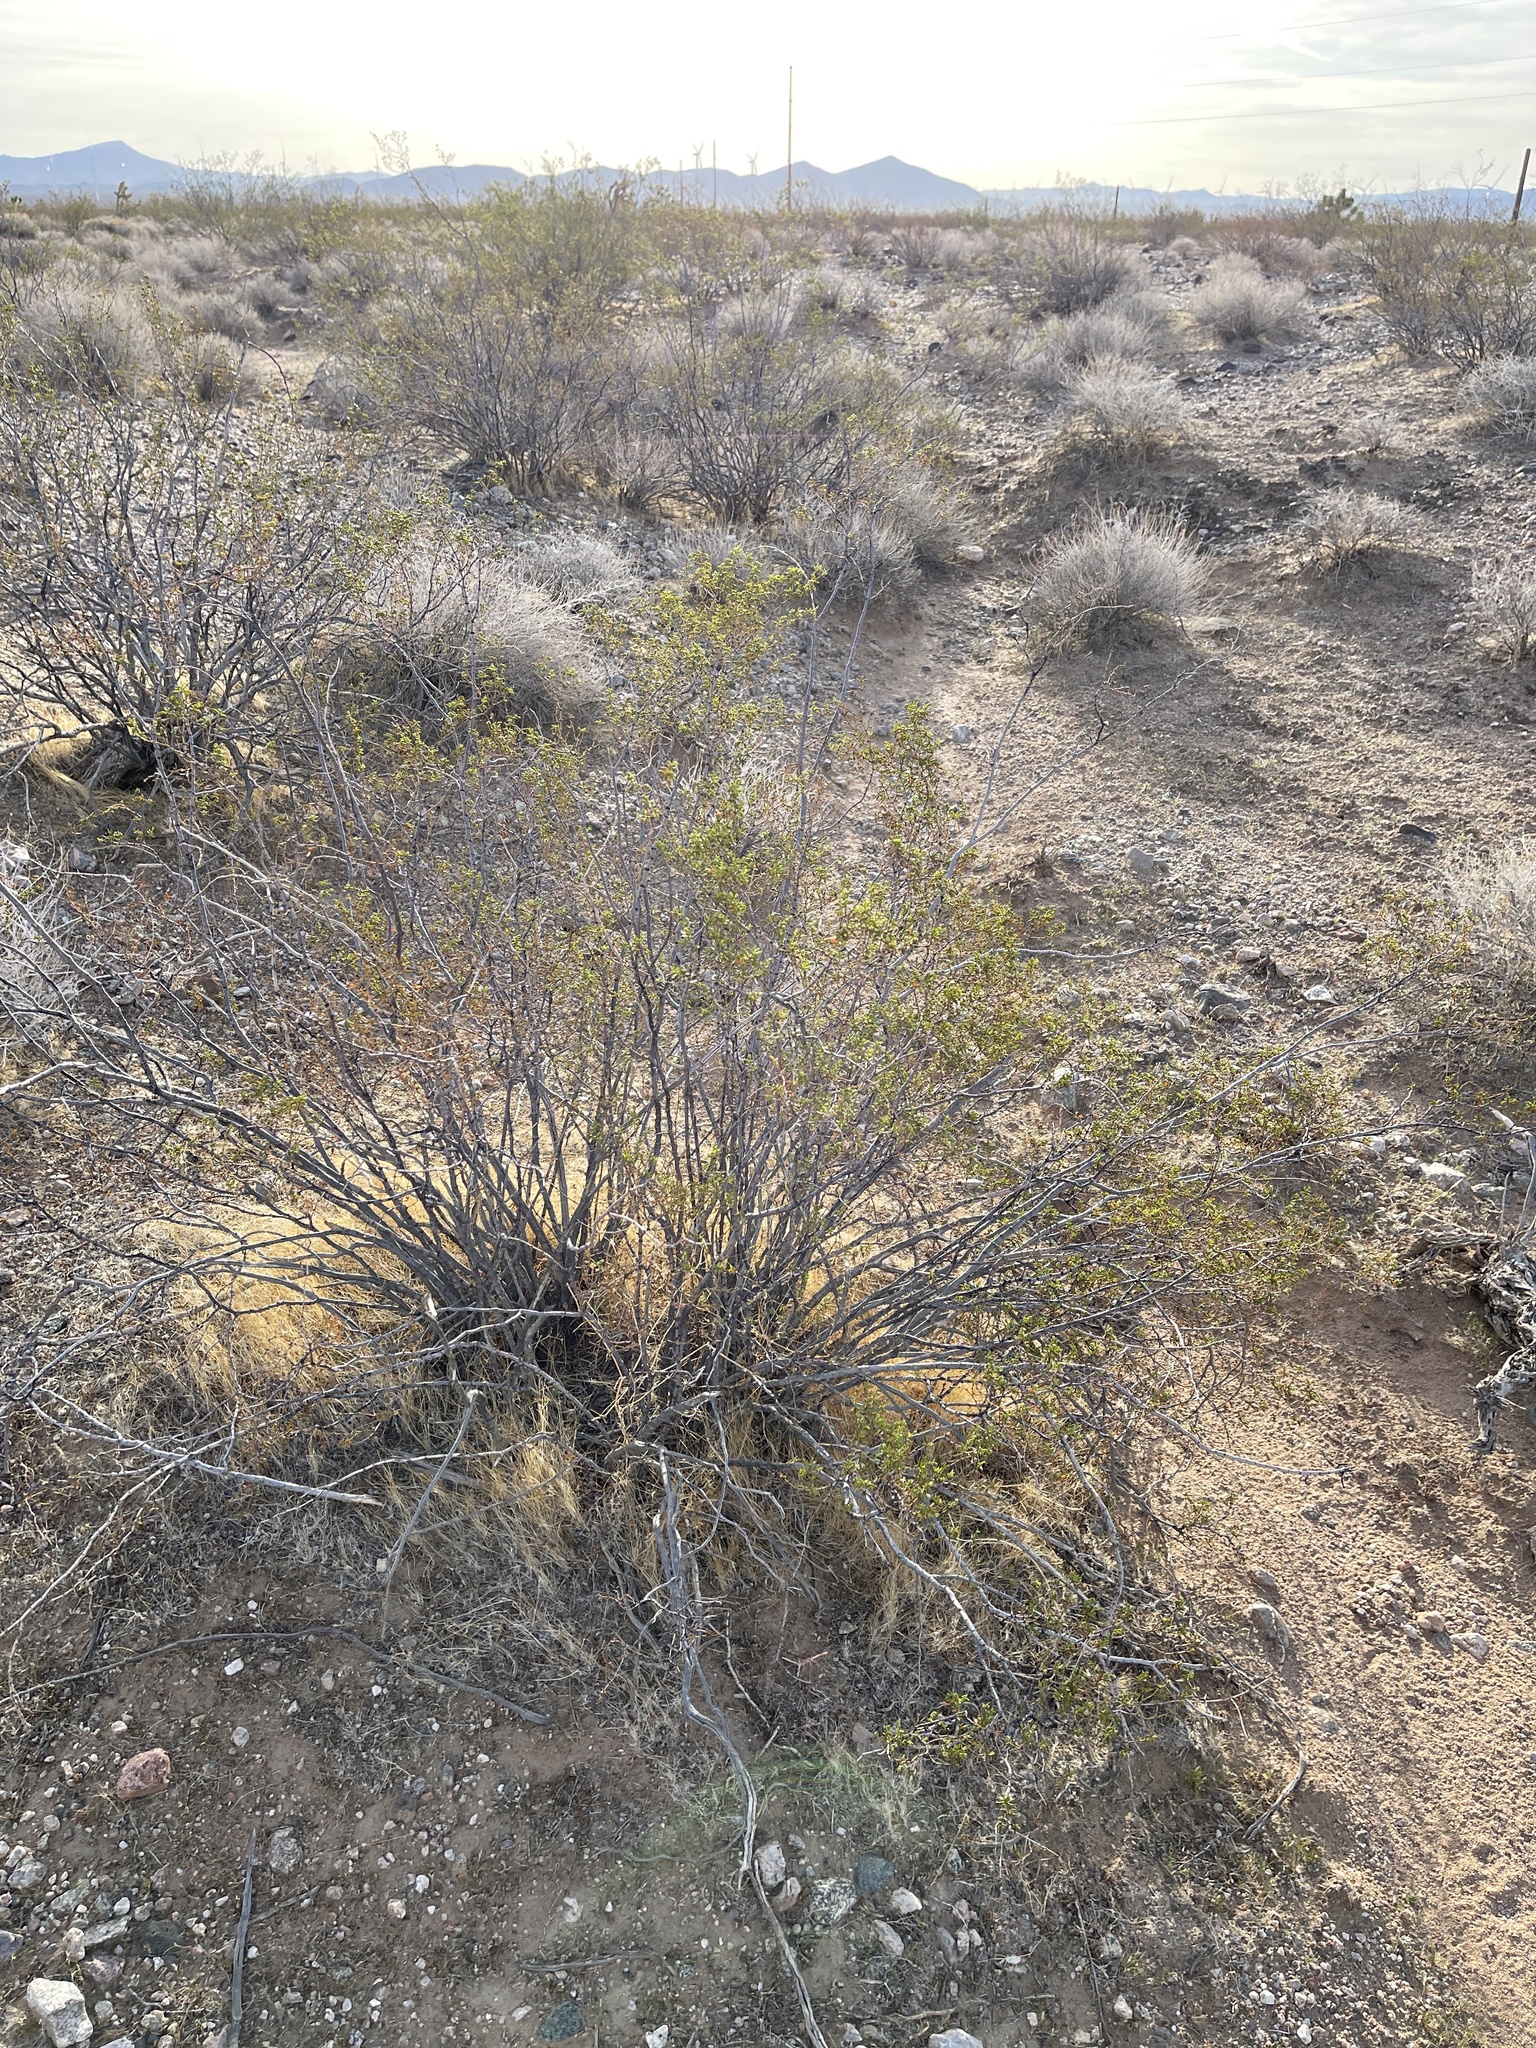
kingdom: Plantae
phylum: Tracheophyta
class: Magnoliopsida
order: Zygophyllales
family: Zygophyllaceae
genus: Larrea
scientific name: Larrea tridentata
